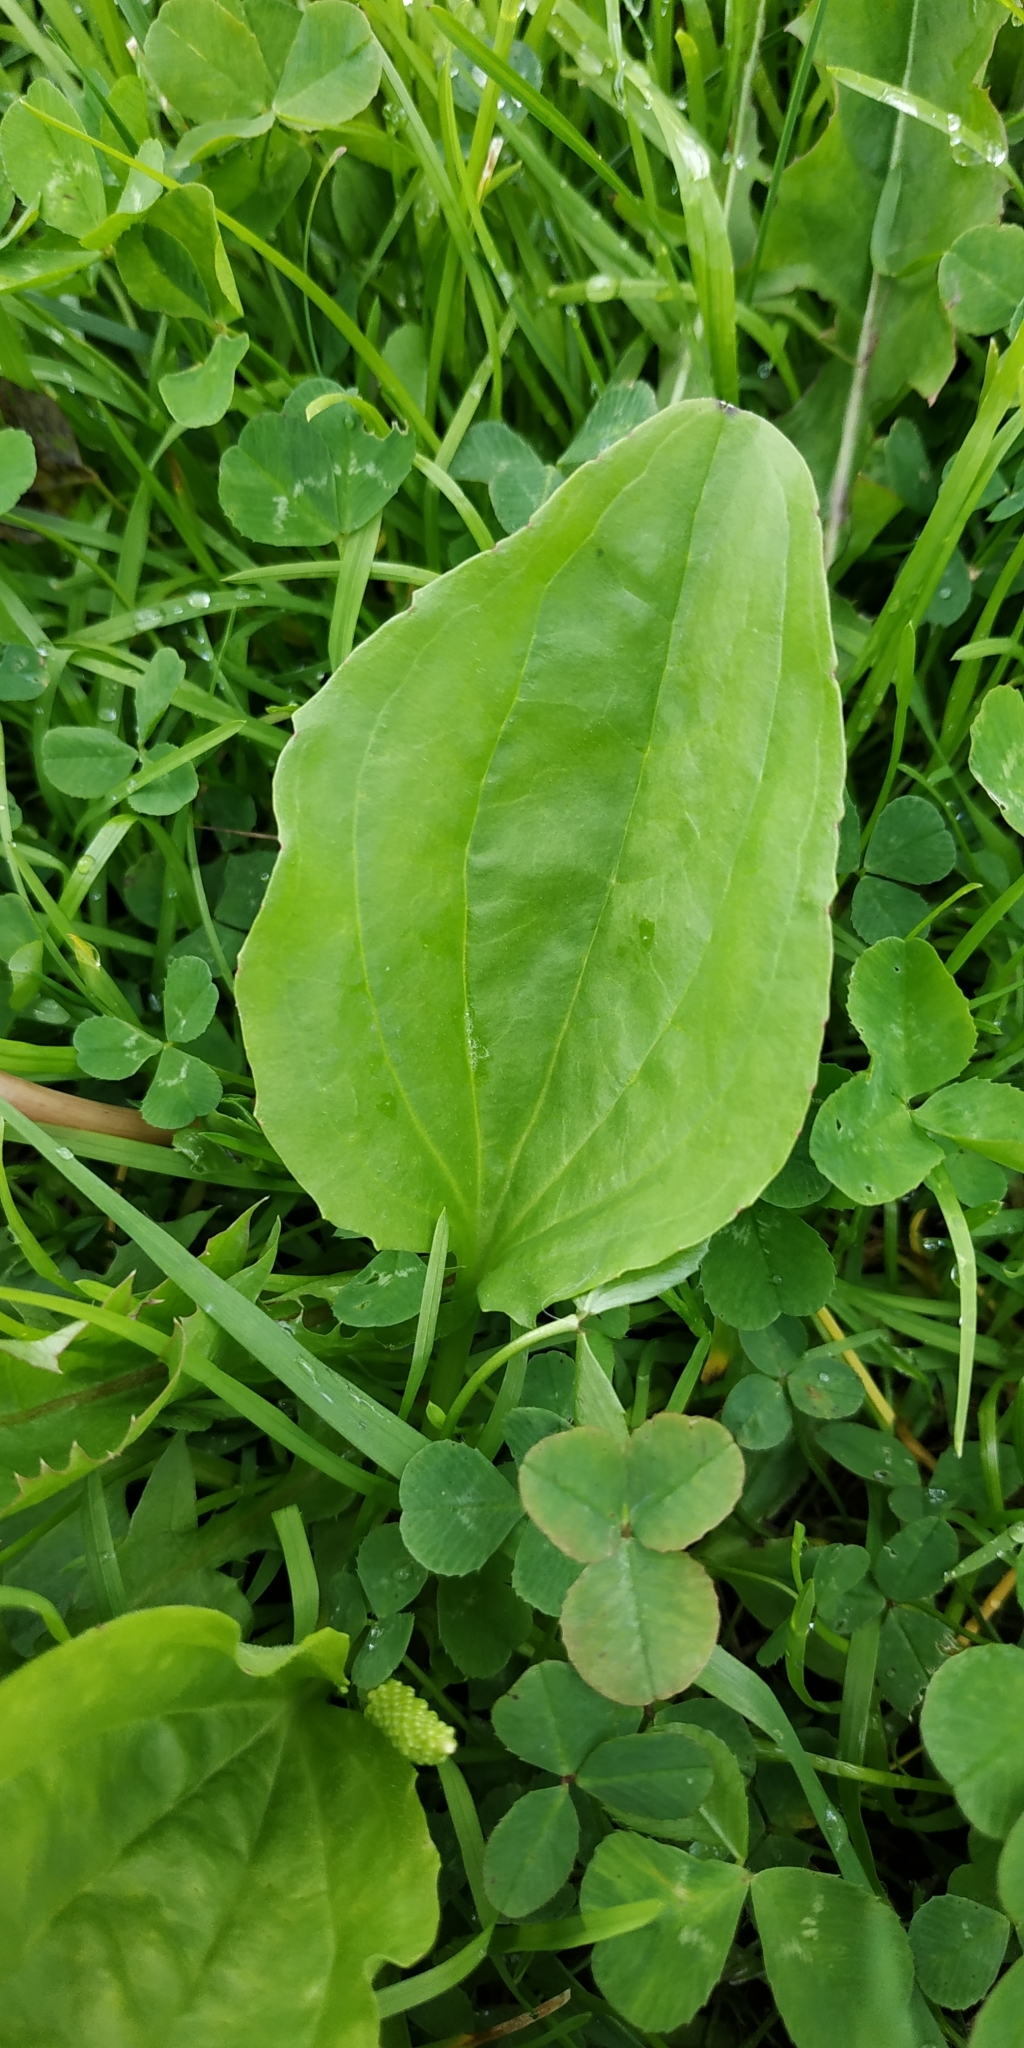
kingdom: Plantae
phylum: Tracheophyta
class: Magnoliopsida
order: Lamiales
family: Plantaginaceae
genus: Plantago
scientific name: Plantago major
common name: Common plantain
